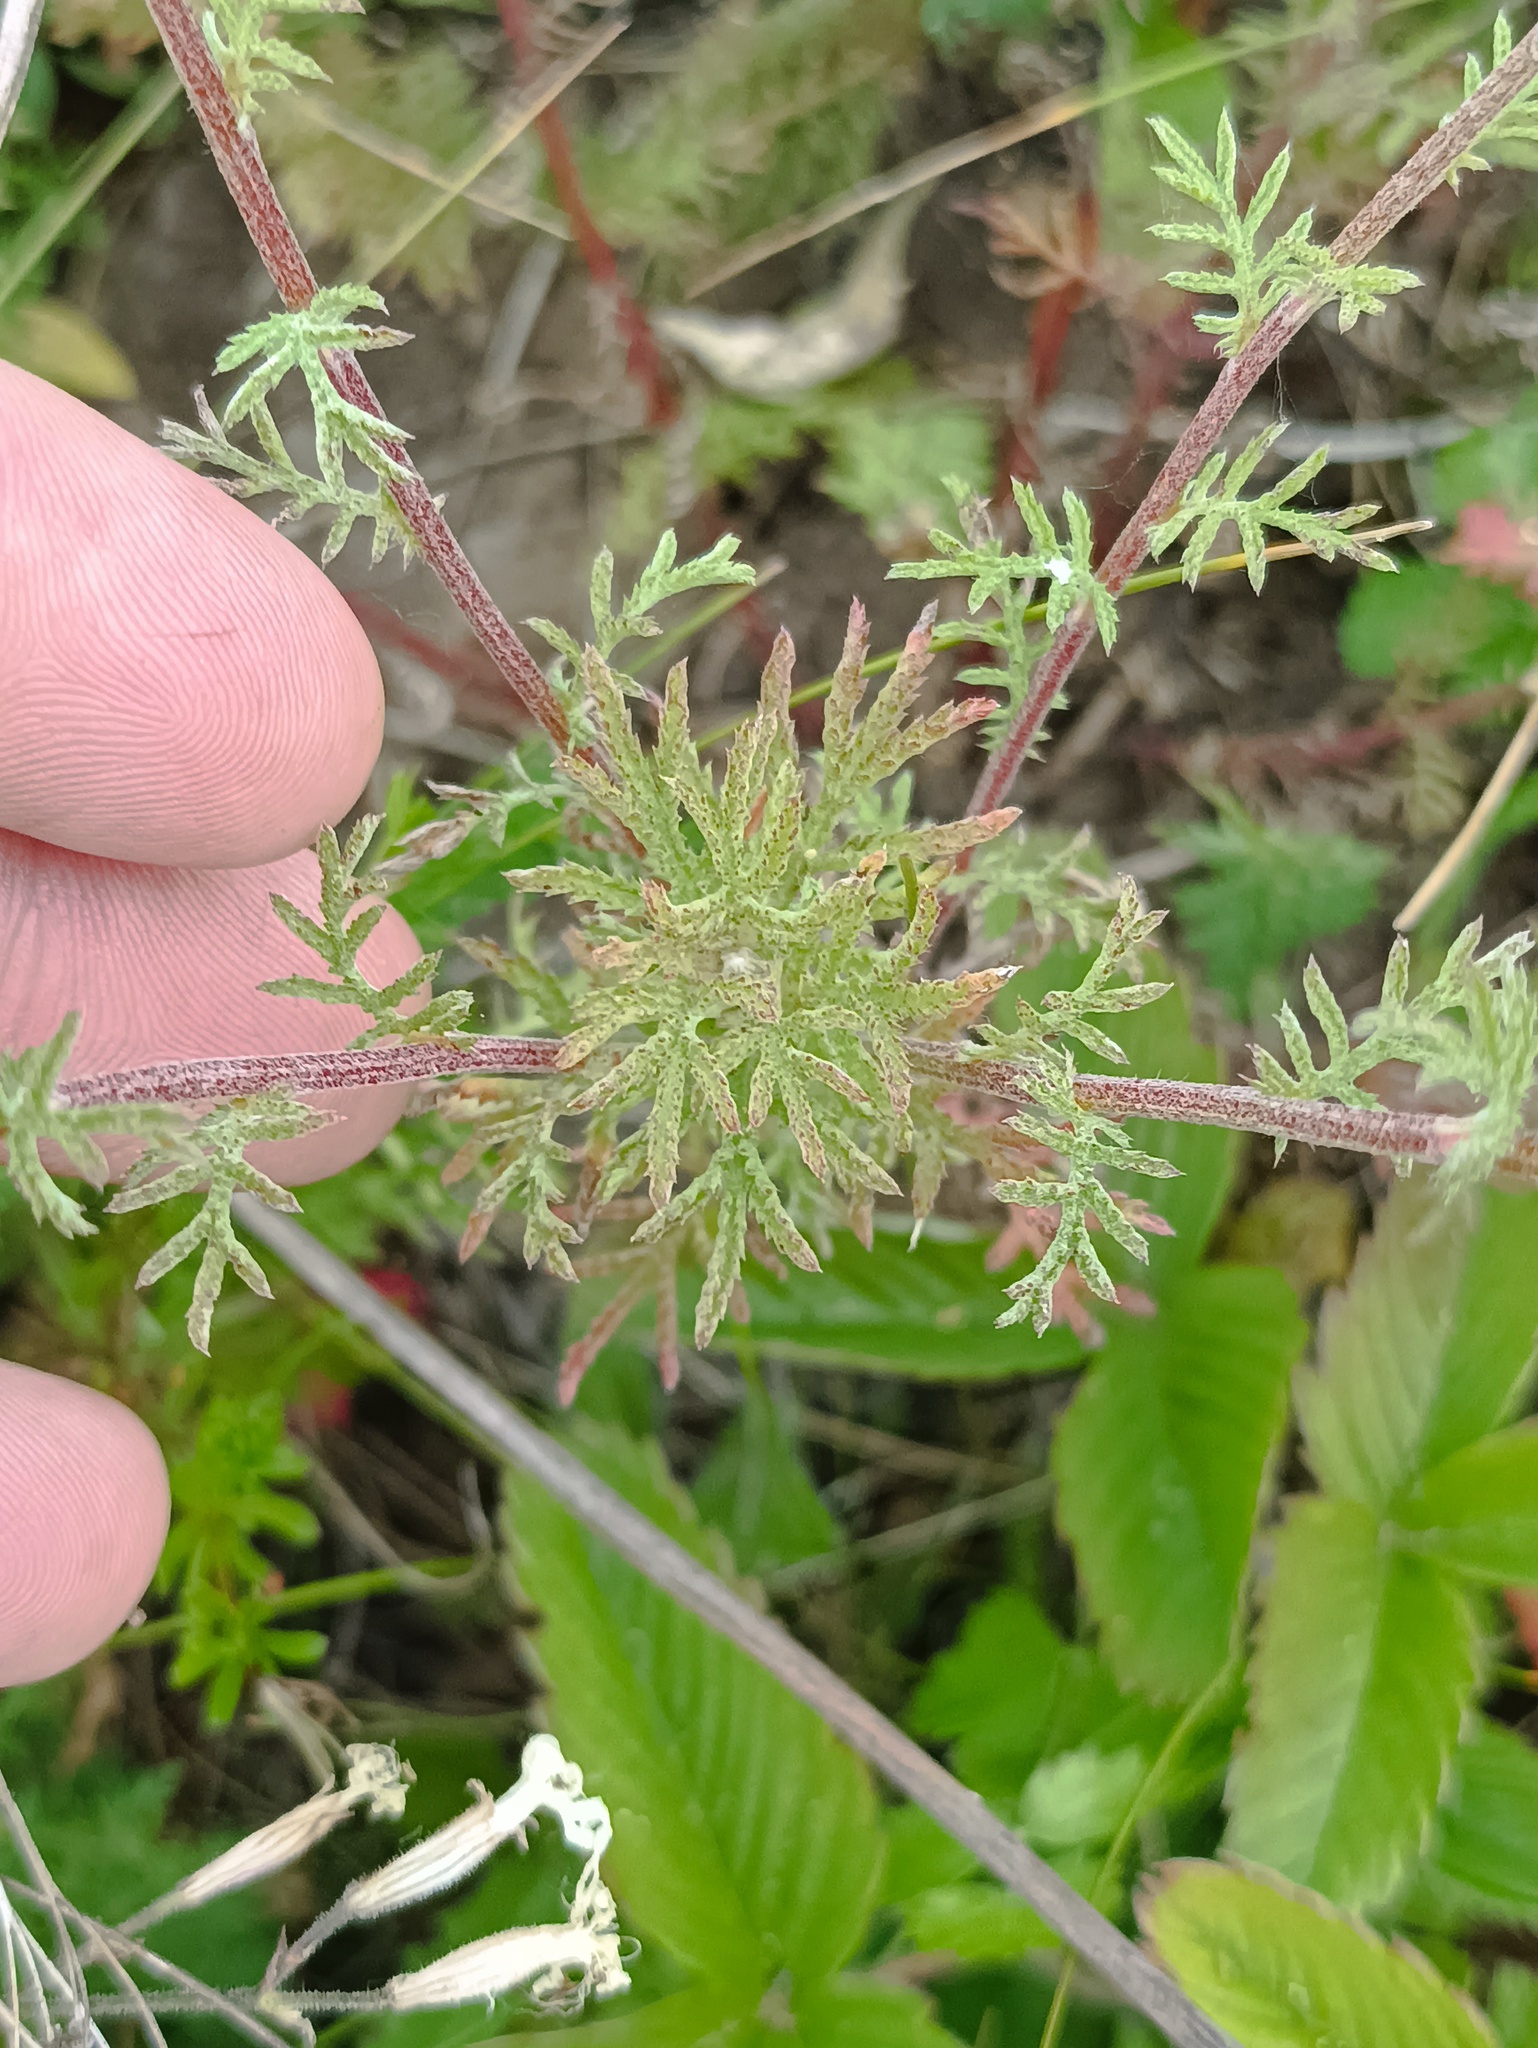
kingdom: Plantae
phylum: Tracheophyta
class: Magnoliopsida
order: Asterales
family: Asteraceae
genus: Cota
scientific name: Cota tinctoria
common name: Golden chamomile
